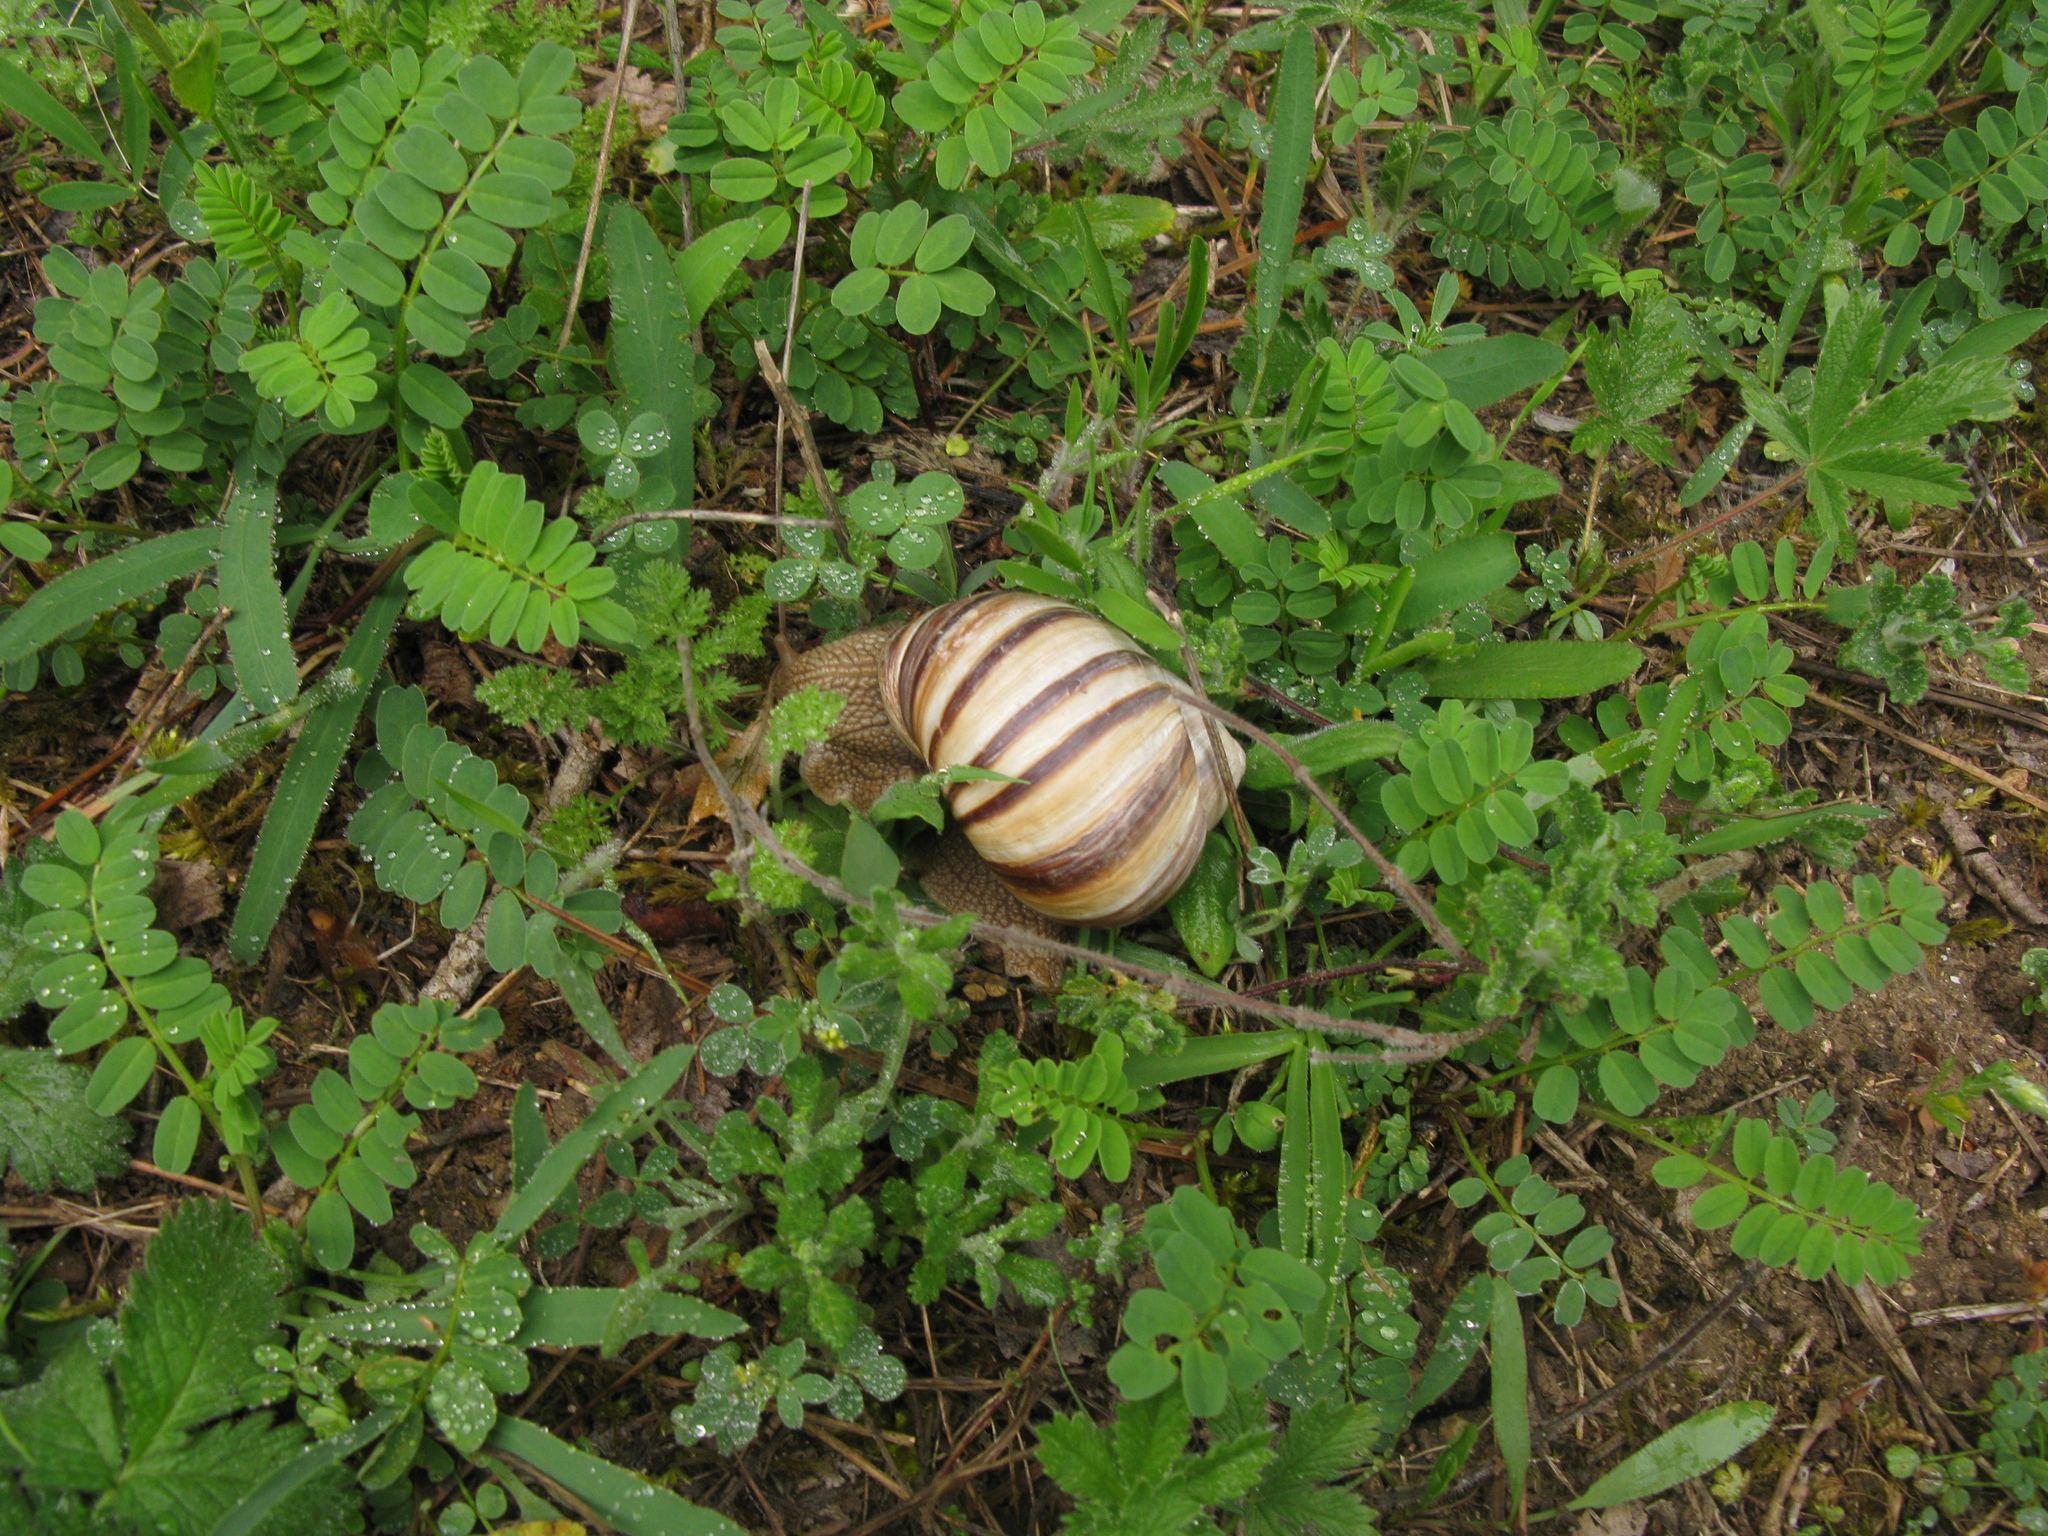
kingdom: Plantae
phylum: Tracheophyta
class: Magnoliopsida
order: Fabales
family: Fabaceae
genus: Coronilla
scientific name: Coronilla varia
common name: Crownvetch
